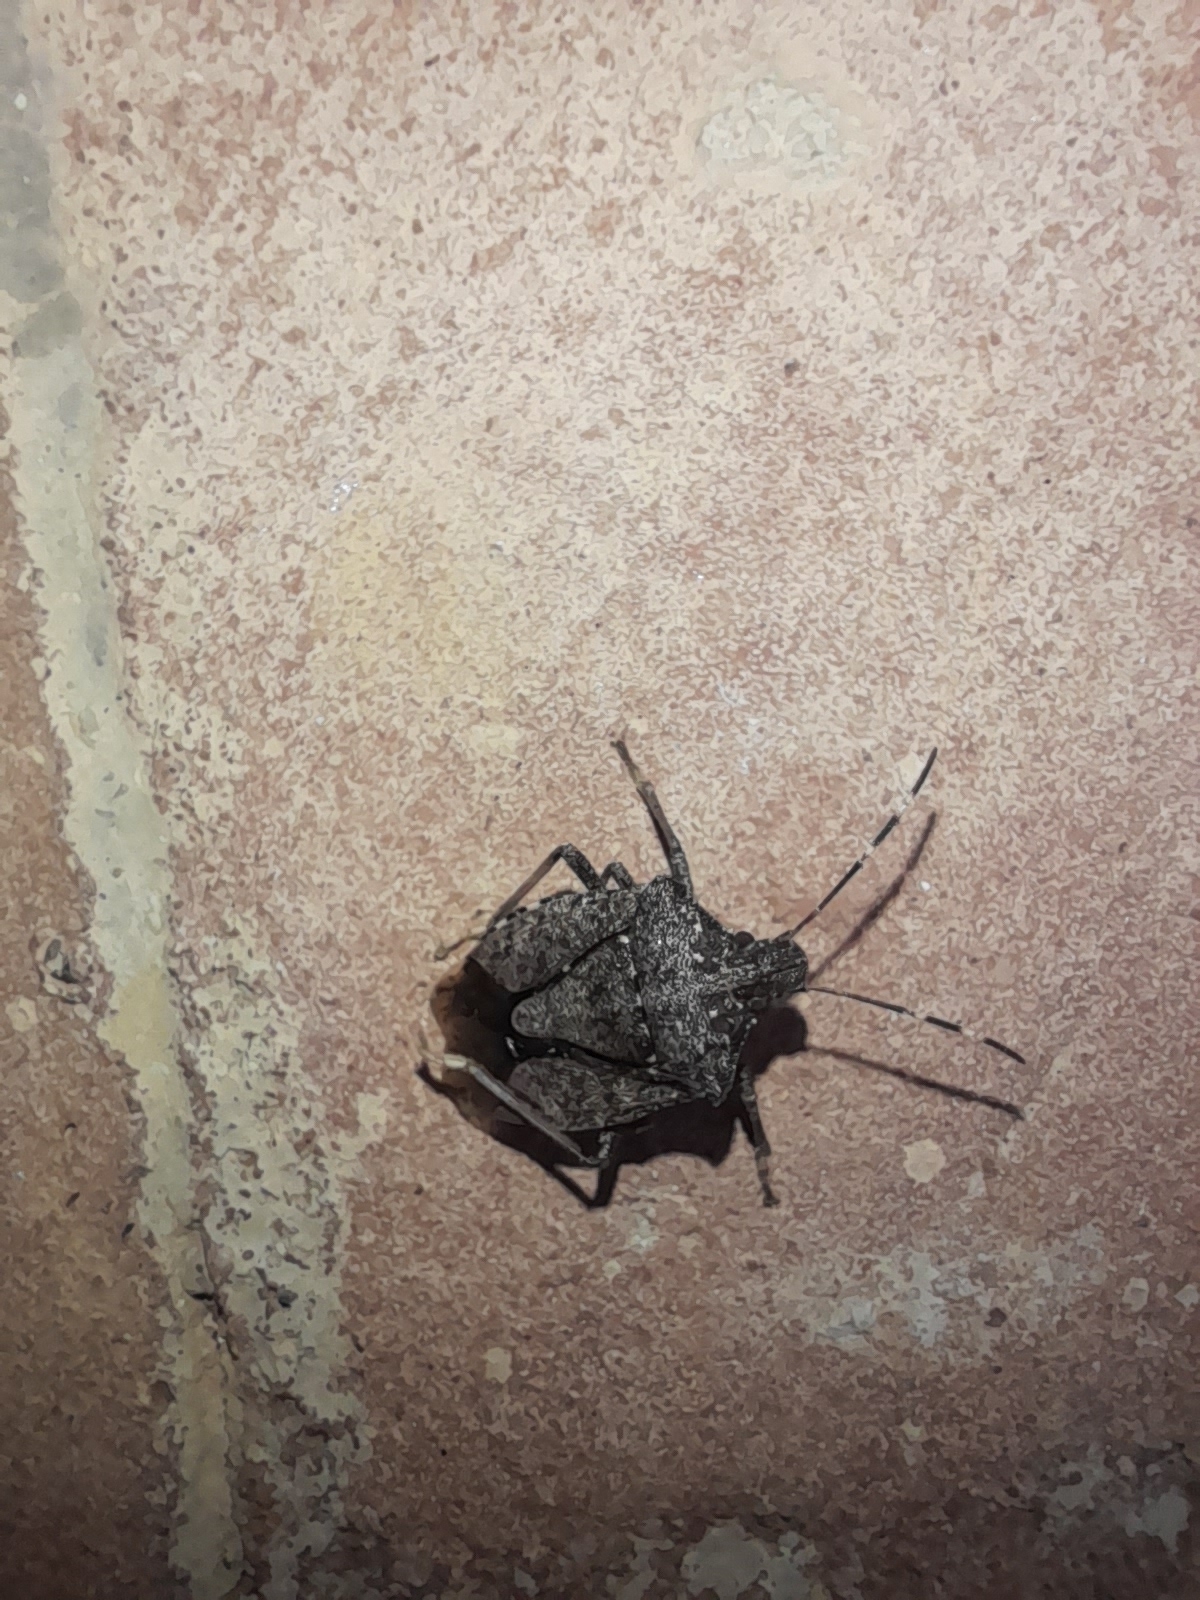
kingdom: Animalia
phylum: Arthropoda
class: Insecta
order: Hemiptera
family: Pentatomidae
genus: Halyomorpha
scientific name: Halyomorpha halys
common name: Brown marmorated stink bug
